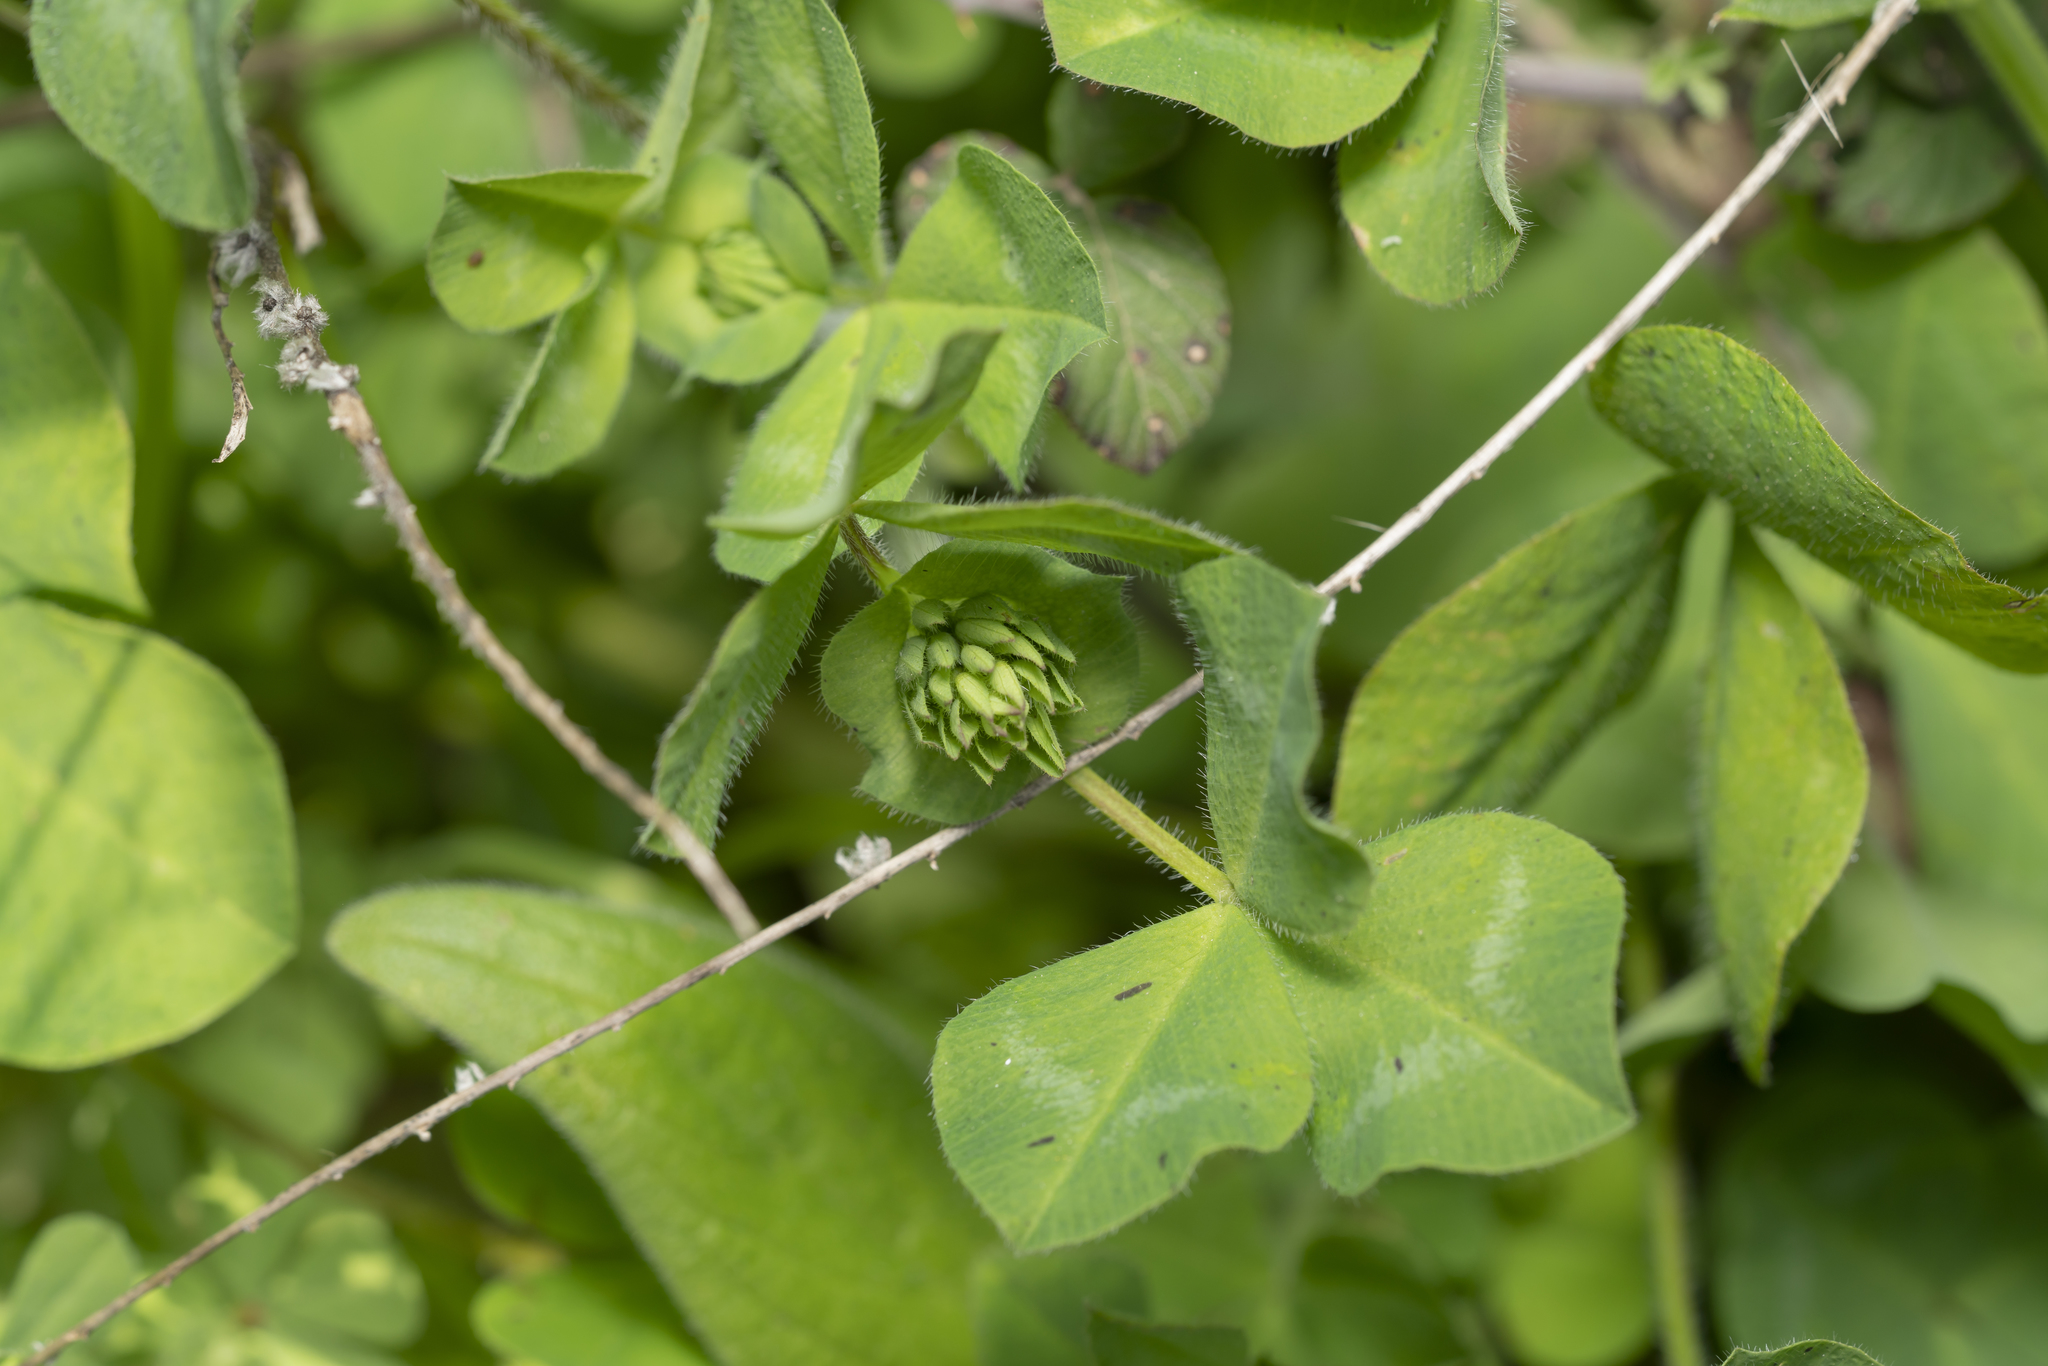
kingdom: Plantae
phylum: Tracheophyta
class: Magnoliopsida
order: Fabales
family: Fabaceae
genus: Trifolium
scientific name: Trifolium clypeatum
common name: Shield clover
